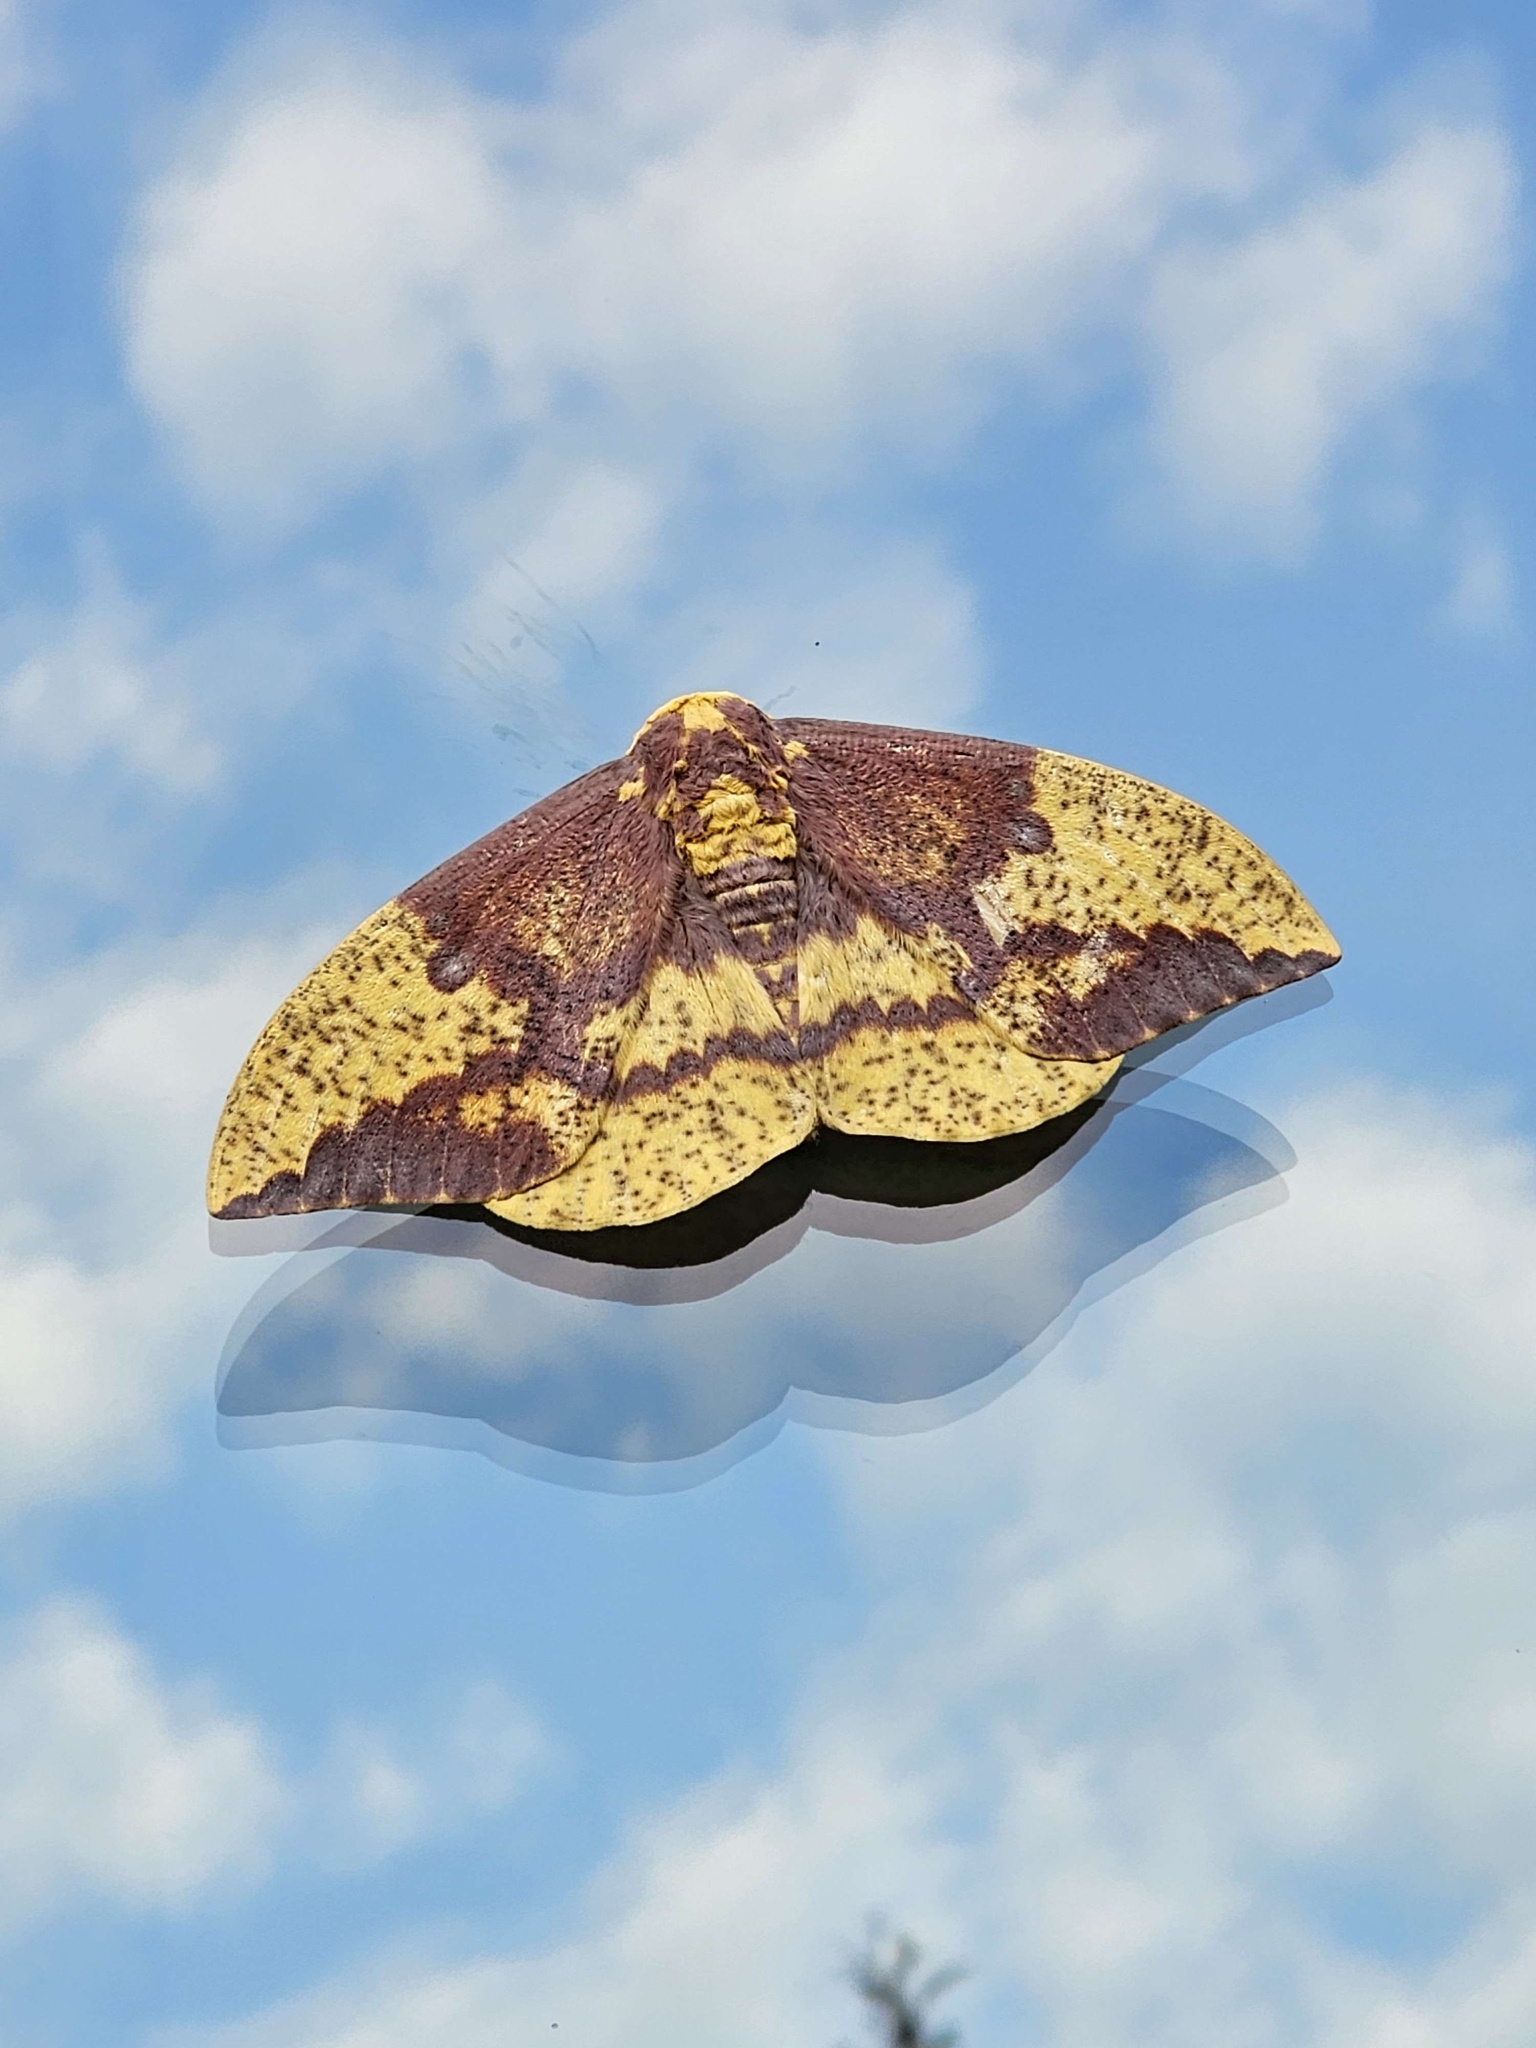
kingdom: Animalia
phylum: Arthropoda
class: Insecta
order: Lepidoptera
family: Saturniidae
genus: Eacles
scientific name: Eacles imperialis
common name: Imperial moth
